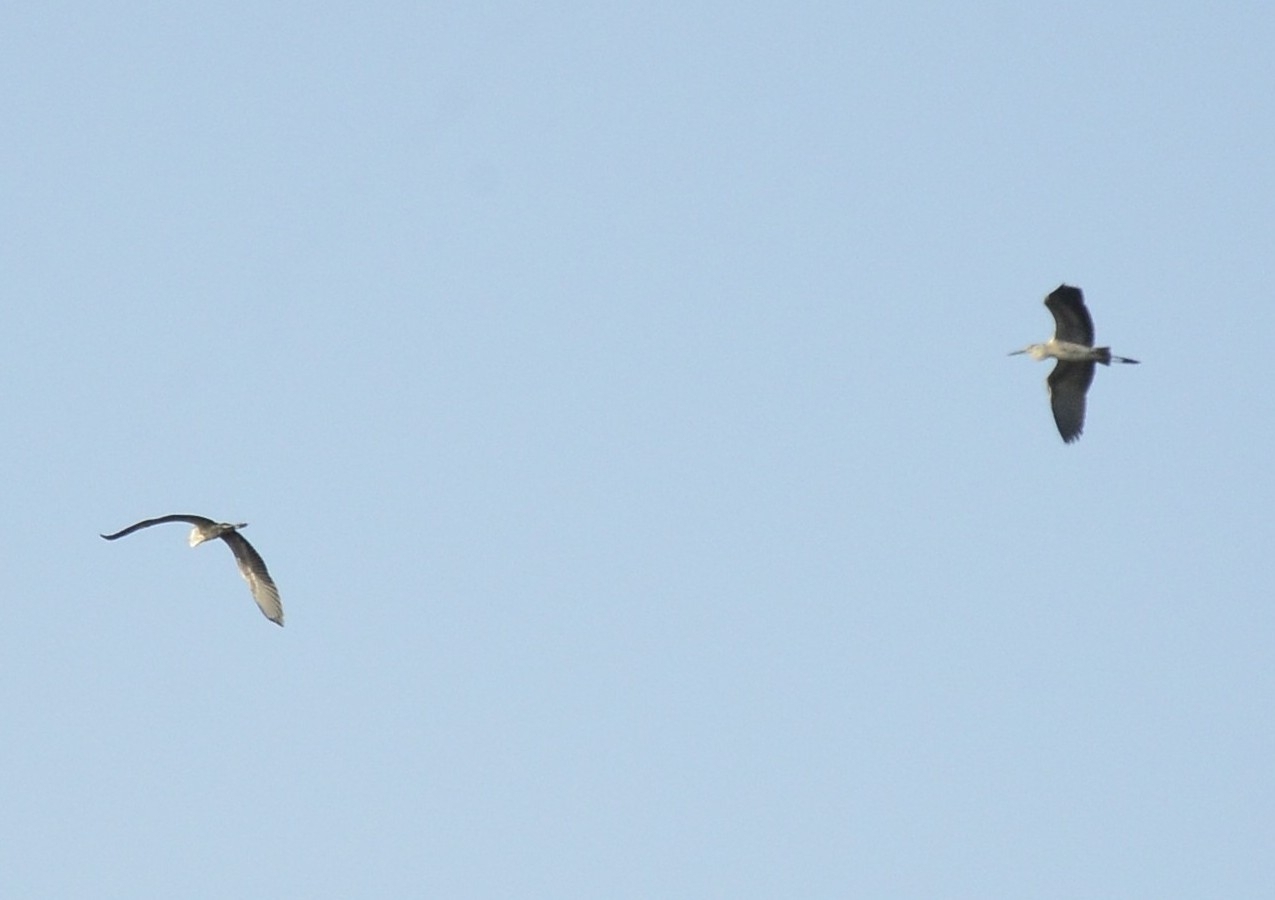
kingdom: Animalia
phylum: Chordata
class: Aves
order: Pelecaniformes
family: Ardeidae
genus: Ardea
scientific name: Ardea cinerea
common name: Grey heron
